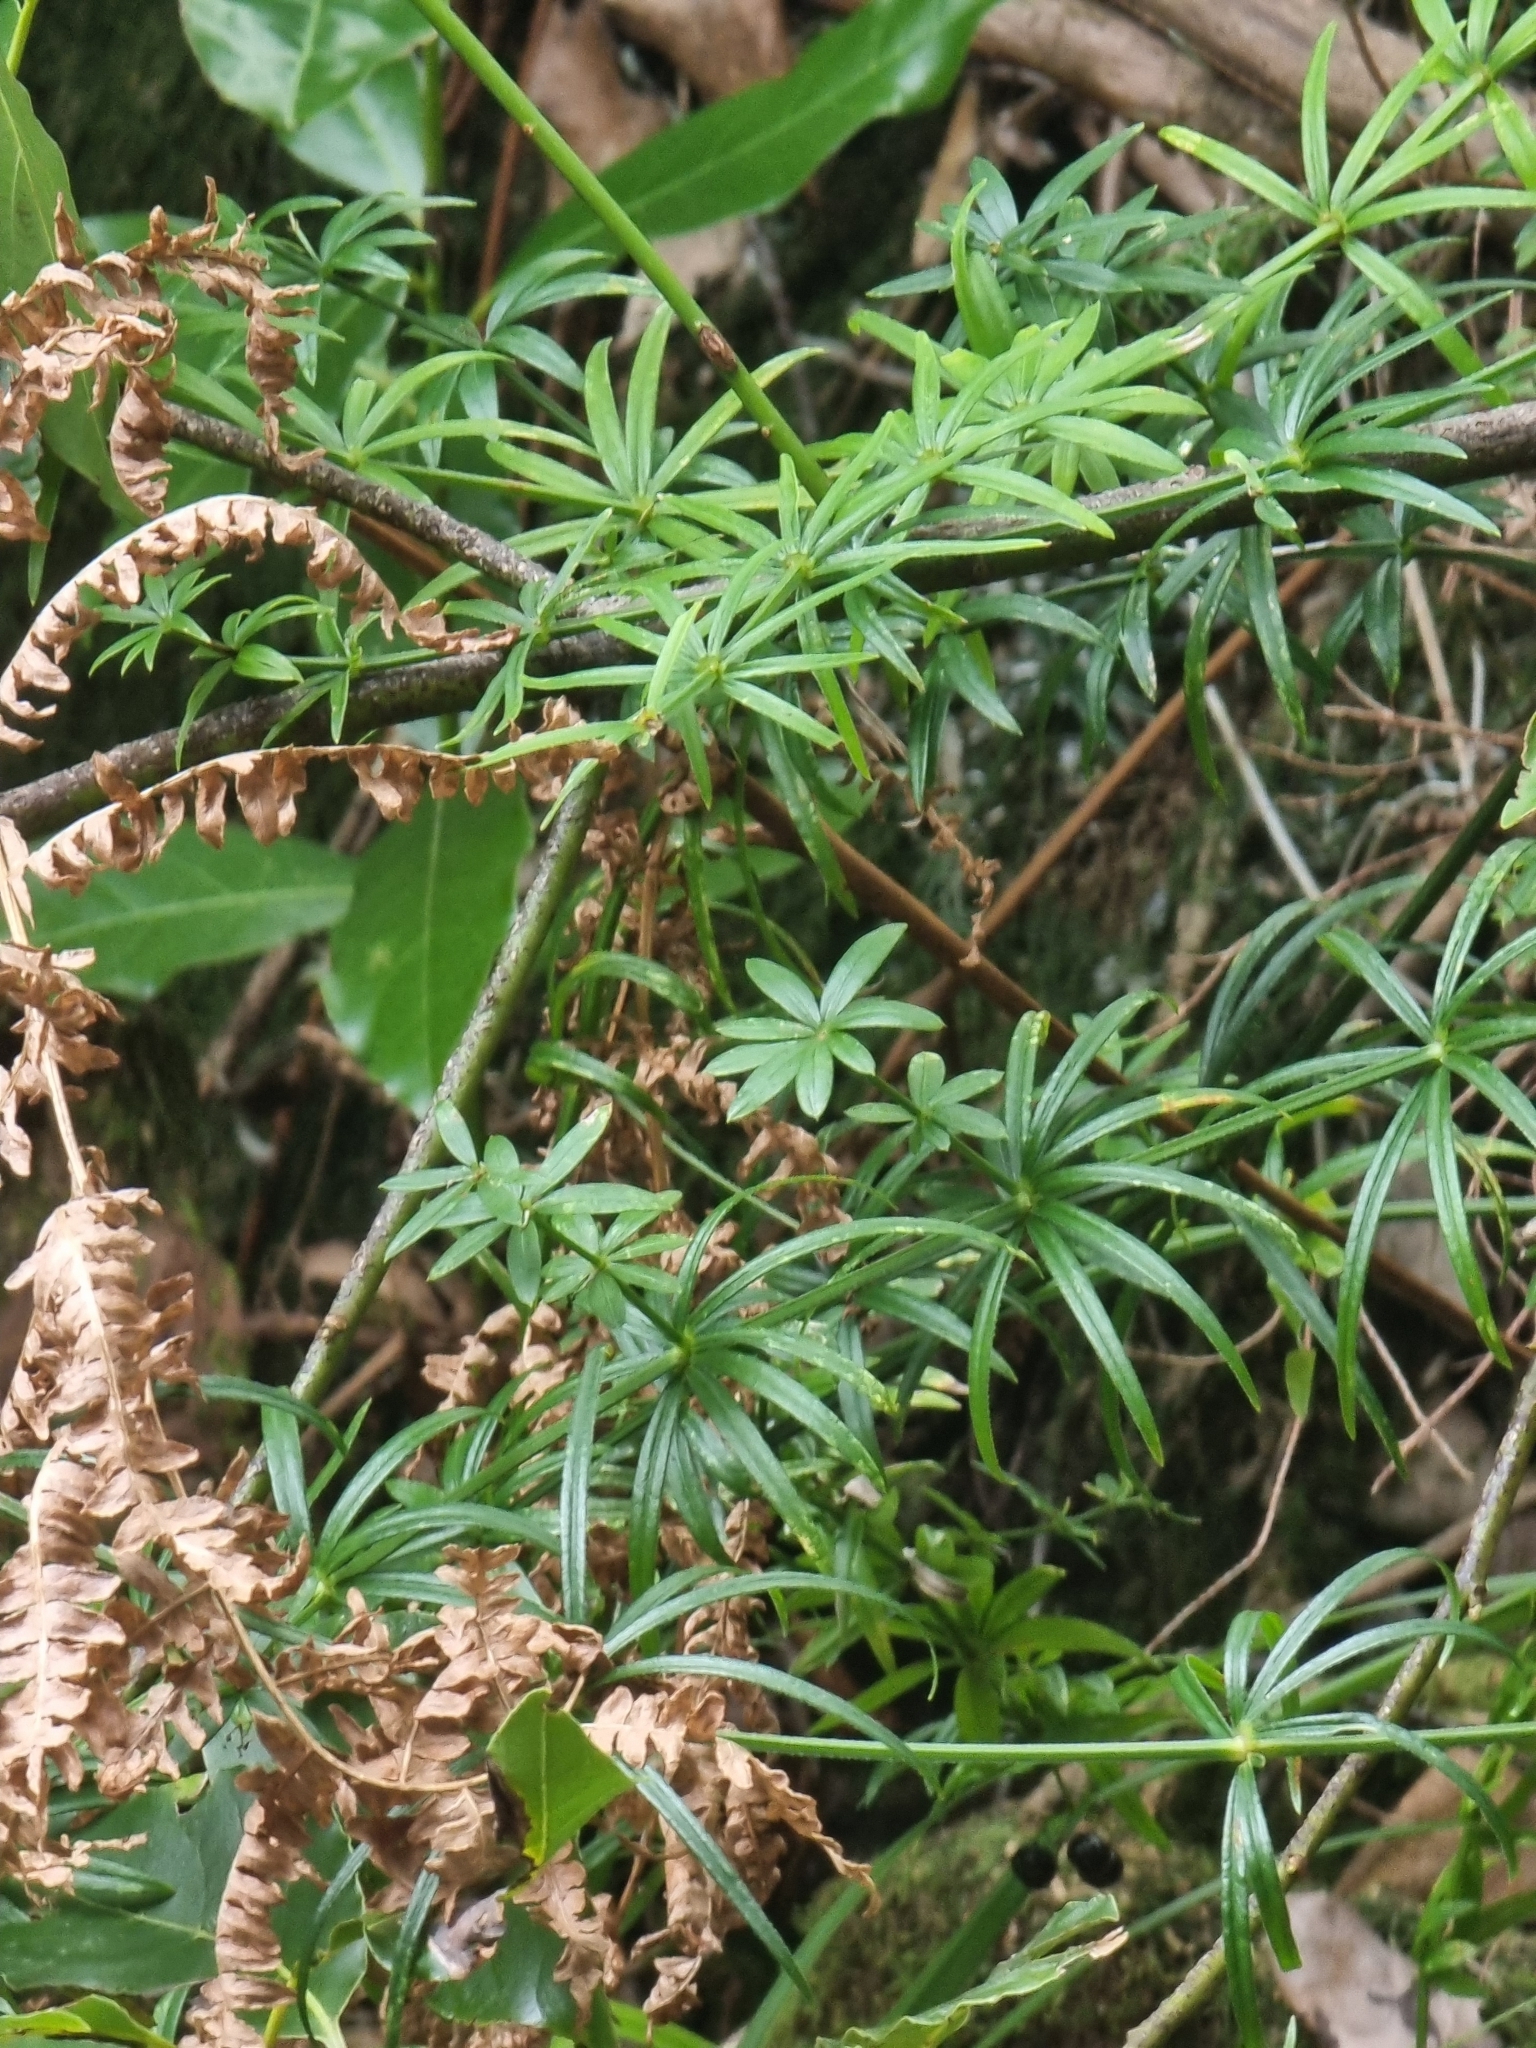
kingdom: Plantae
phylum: Tracheophyta
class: Magnoliopsida
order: Gentianales
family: Rubiaceae
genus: Rubia
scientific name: Rubia occidens
